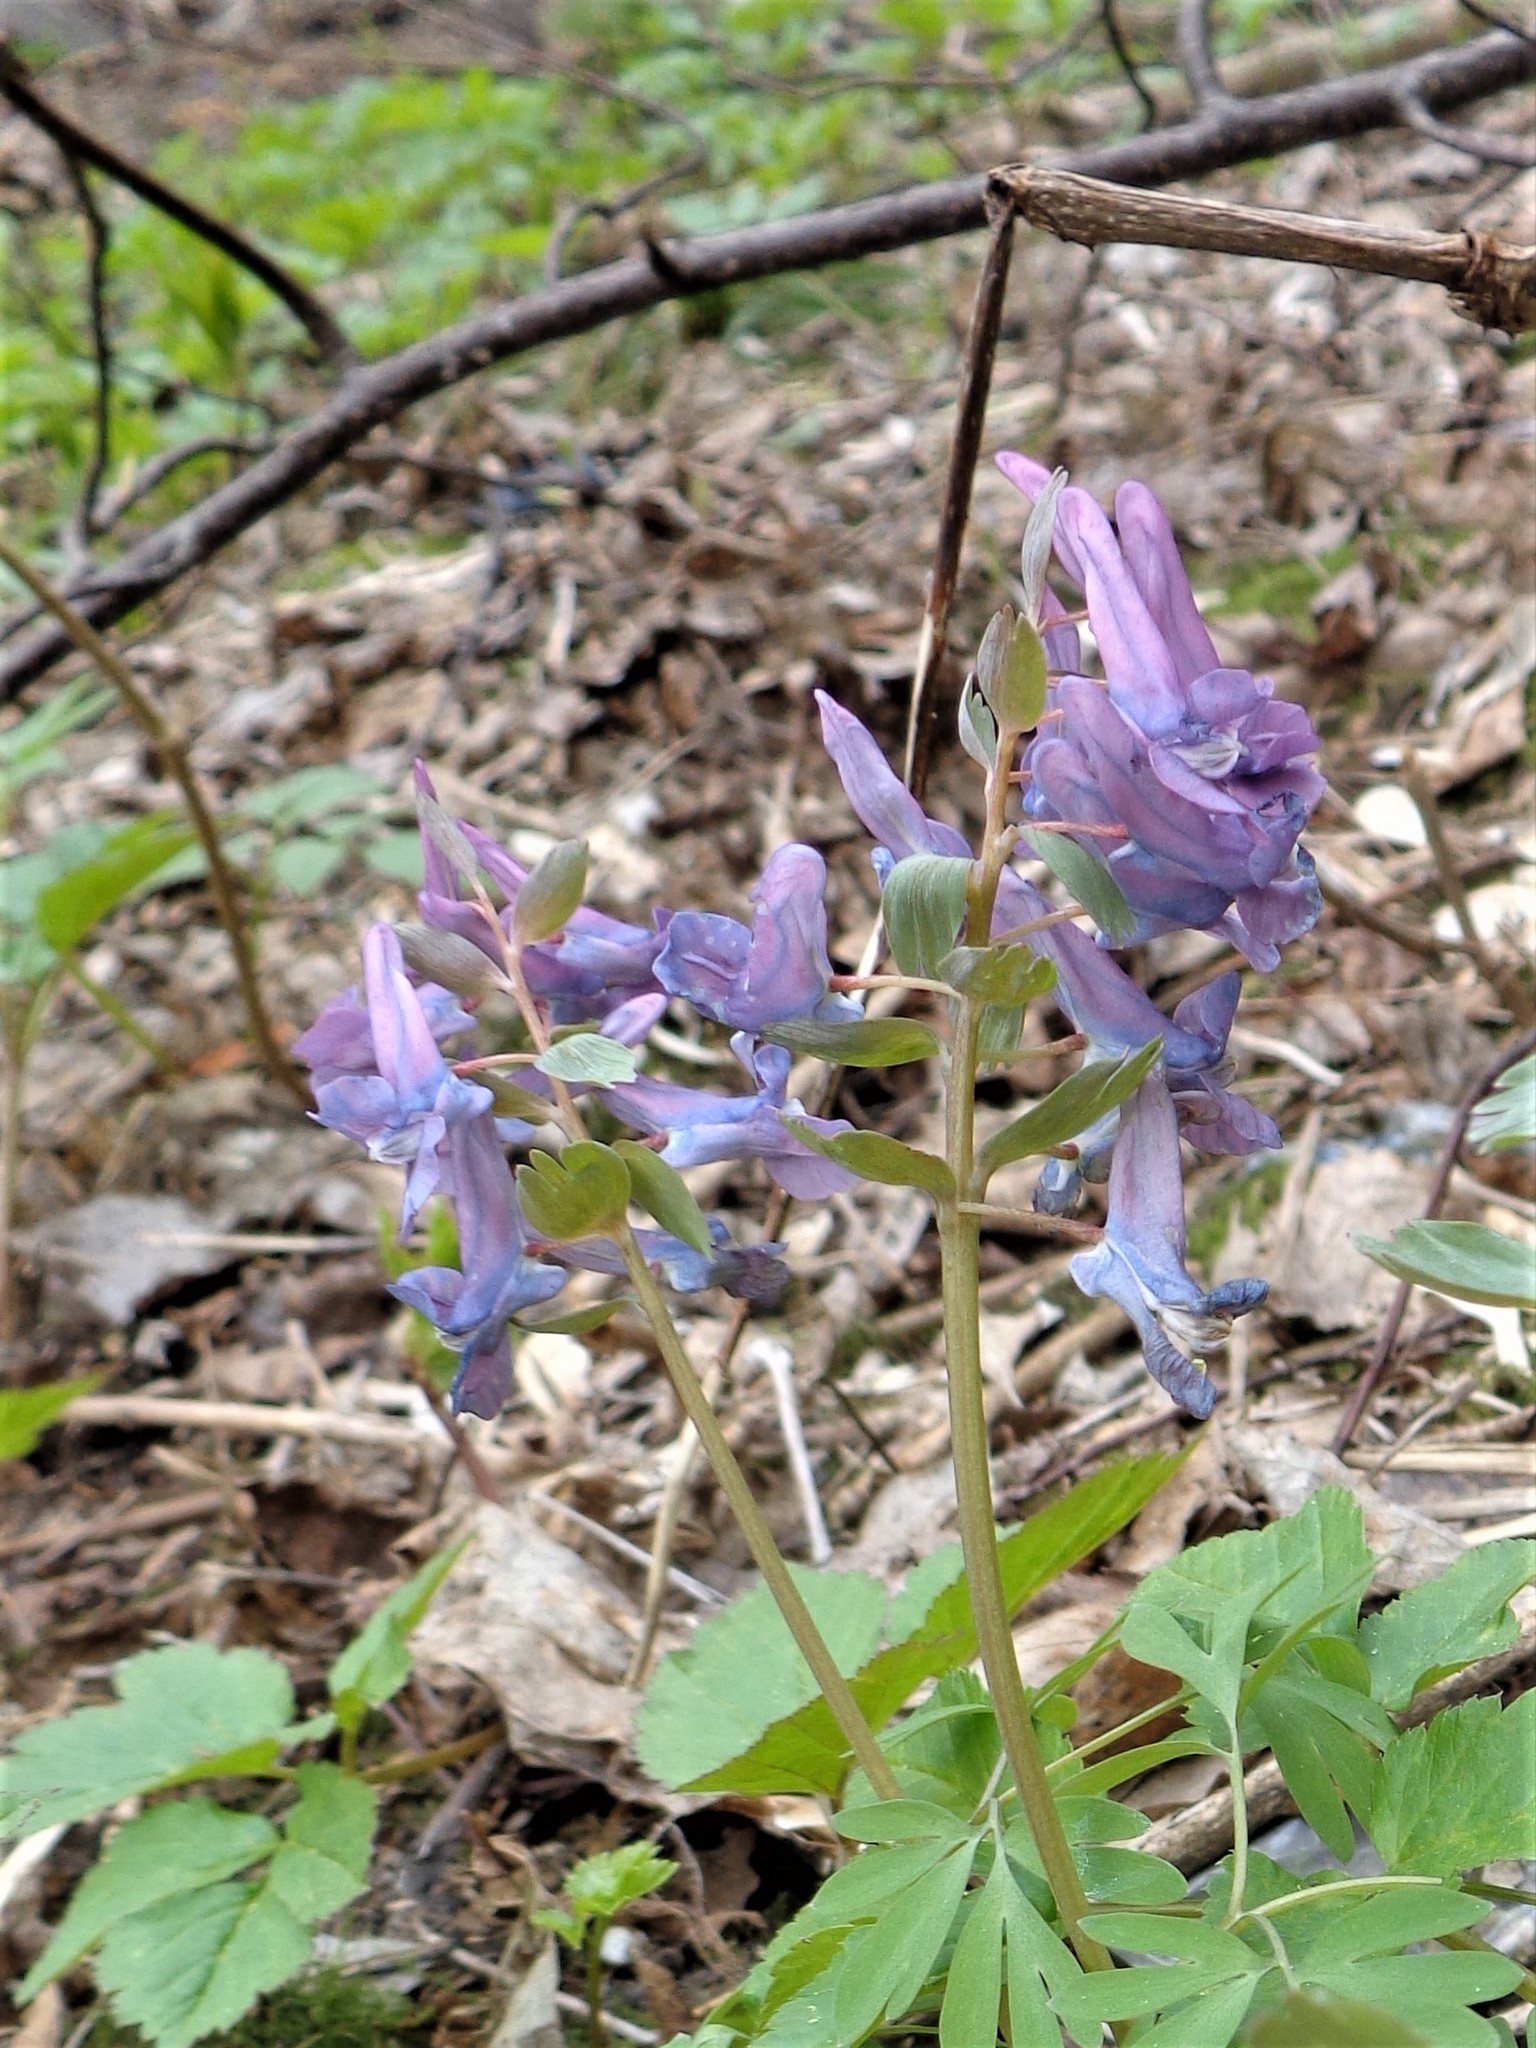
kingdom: Plantae
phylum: Tracheophyta
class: Magnoliopsida
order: Ranunculales
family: Papaveraceae
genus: Corydalis
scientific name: Corydalis solida
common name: Bird-in-a-bush
